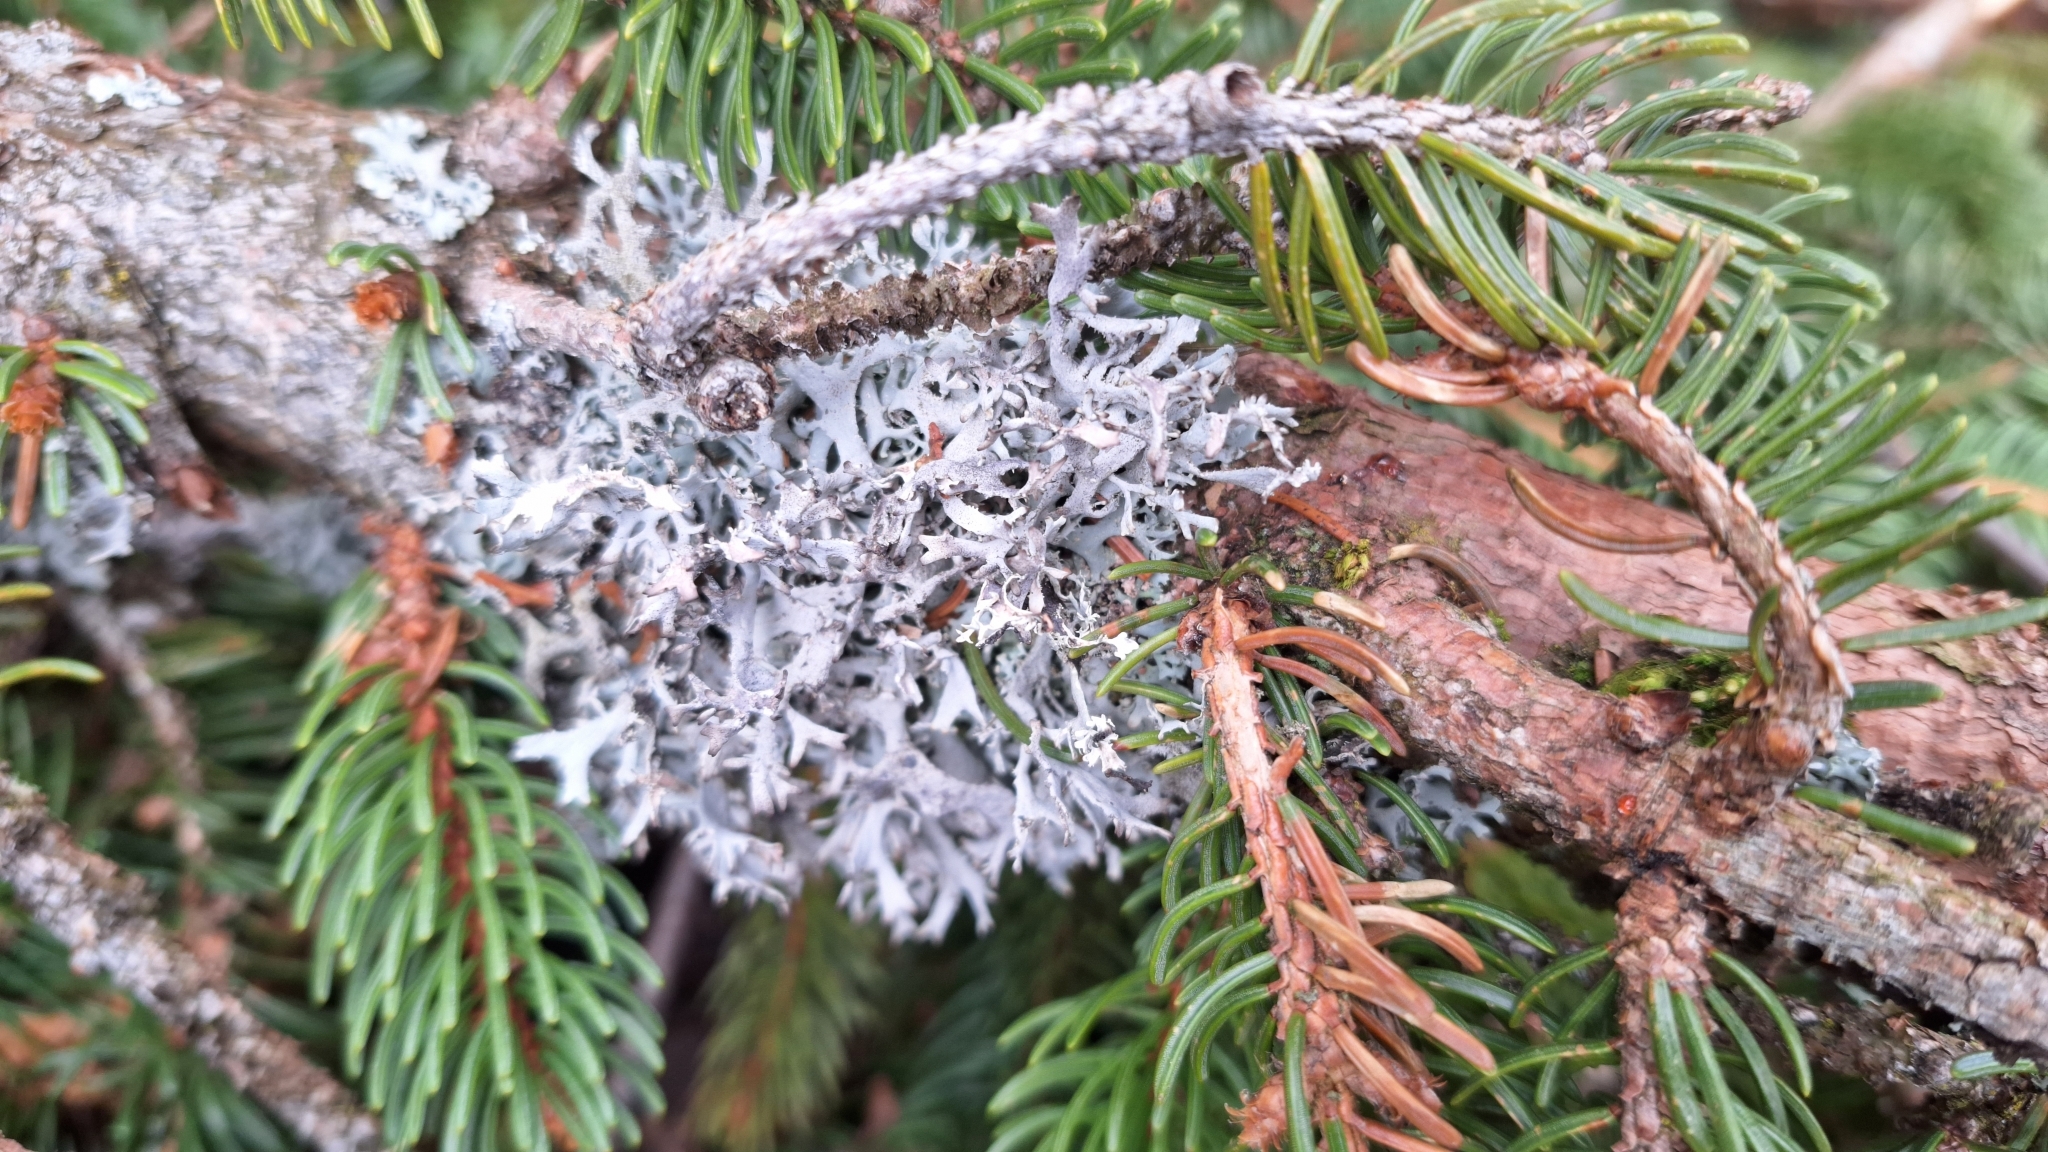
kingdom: Fungi
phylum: Ascomycota
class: Lecanoromycetes
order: Lecanorales
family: Parmeliaceae
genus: Pseudevernia
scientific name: Pseudevernia furfuracea
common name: Tree moss
